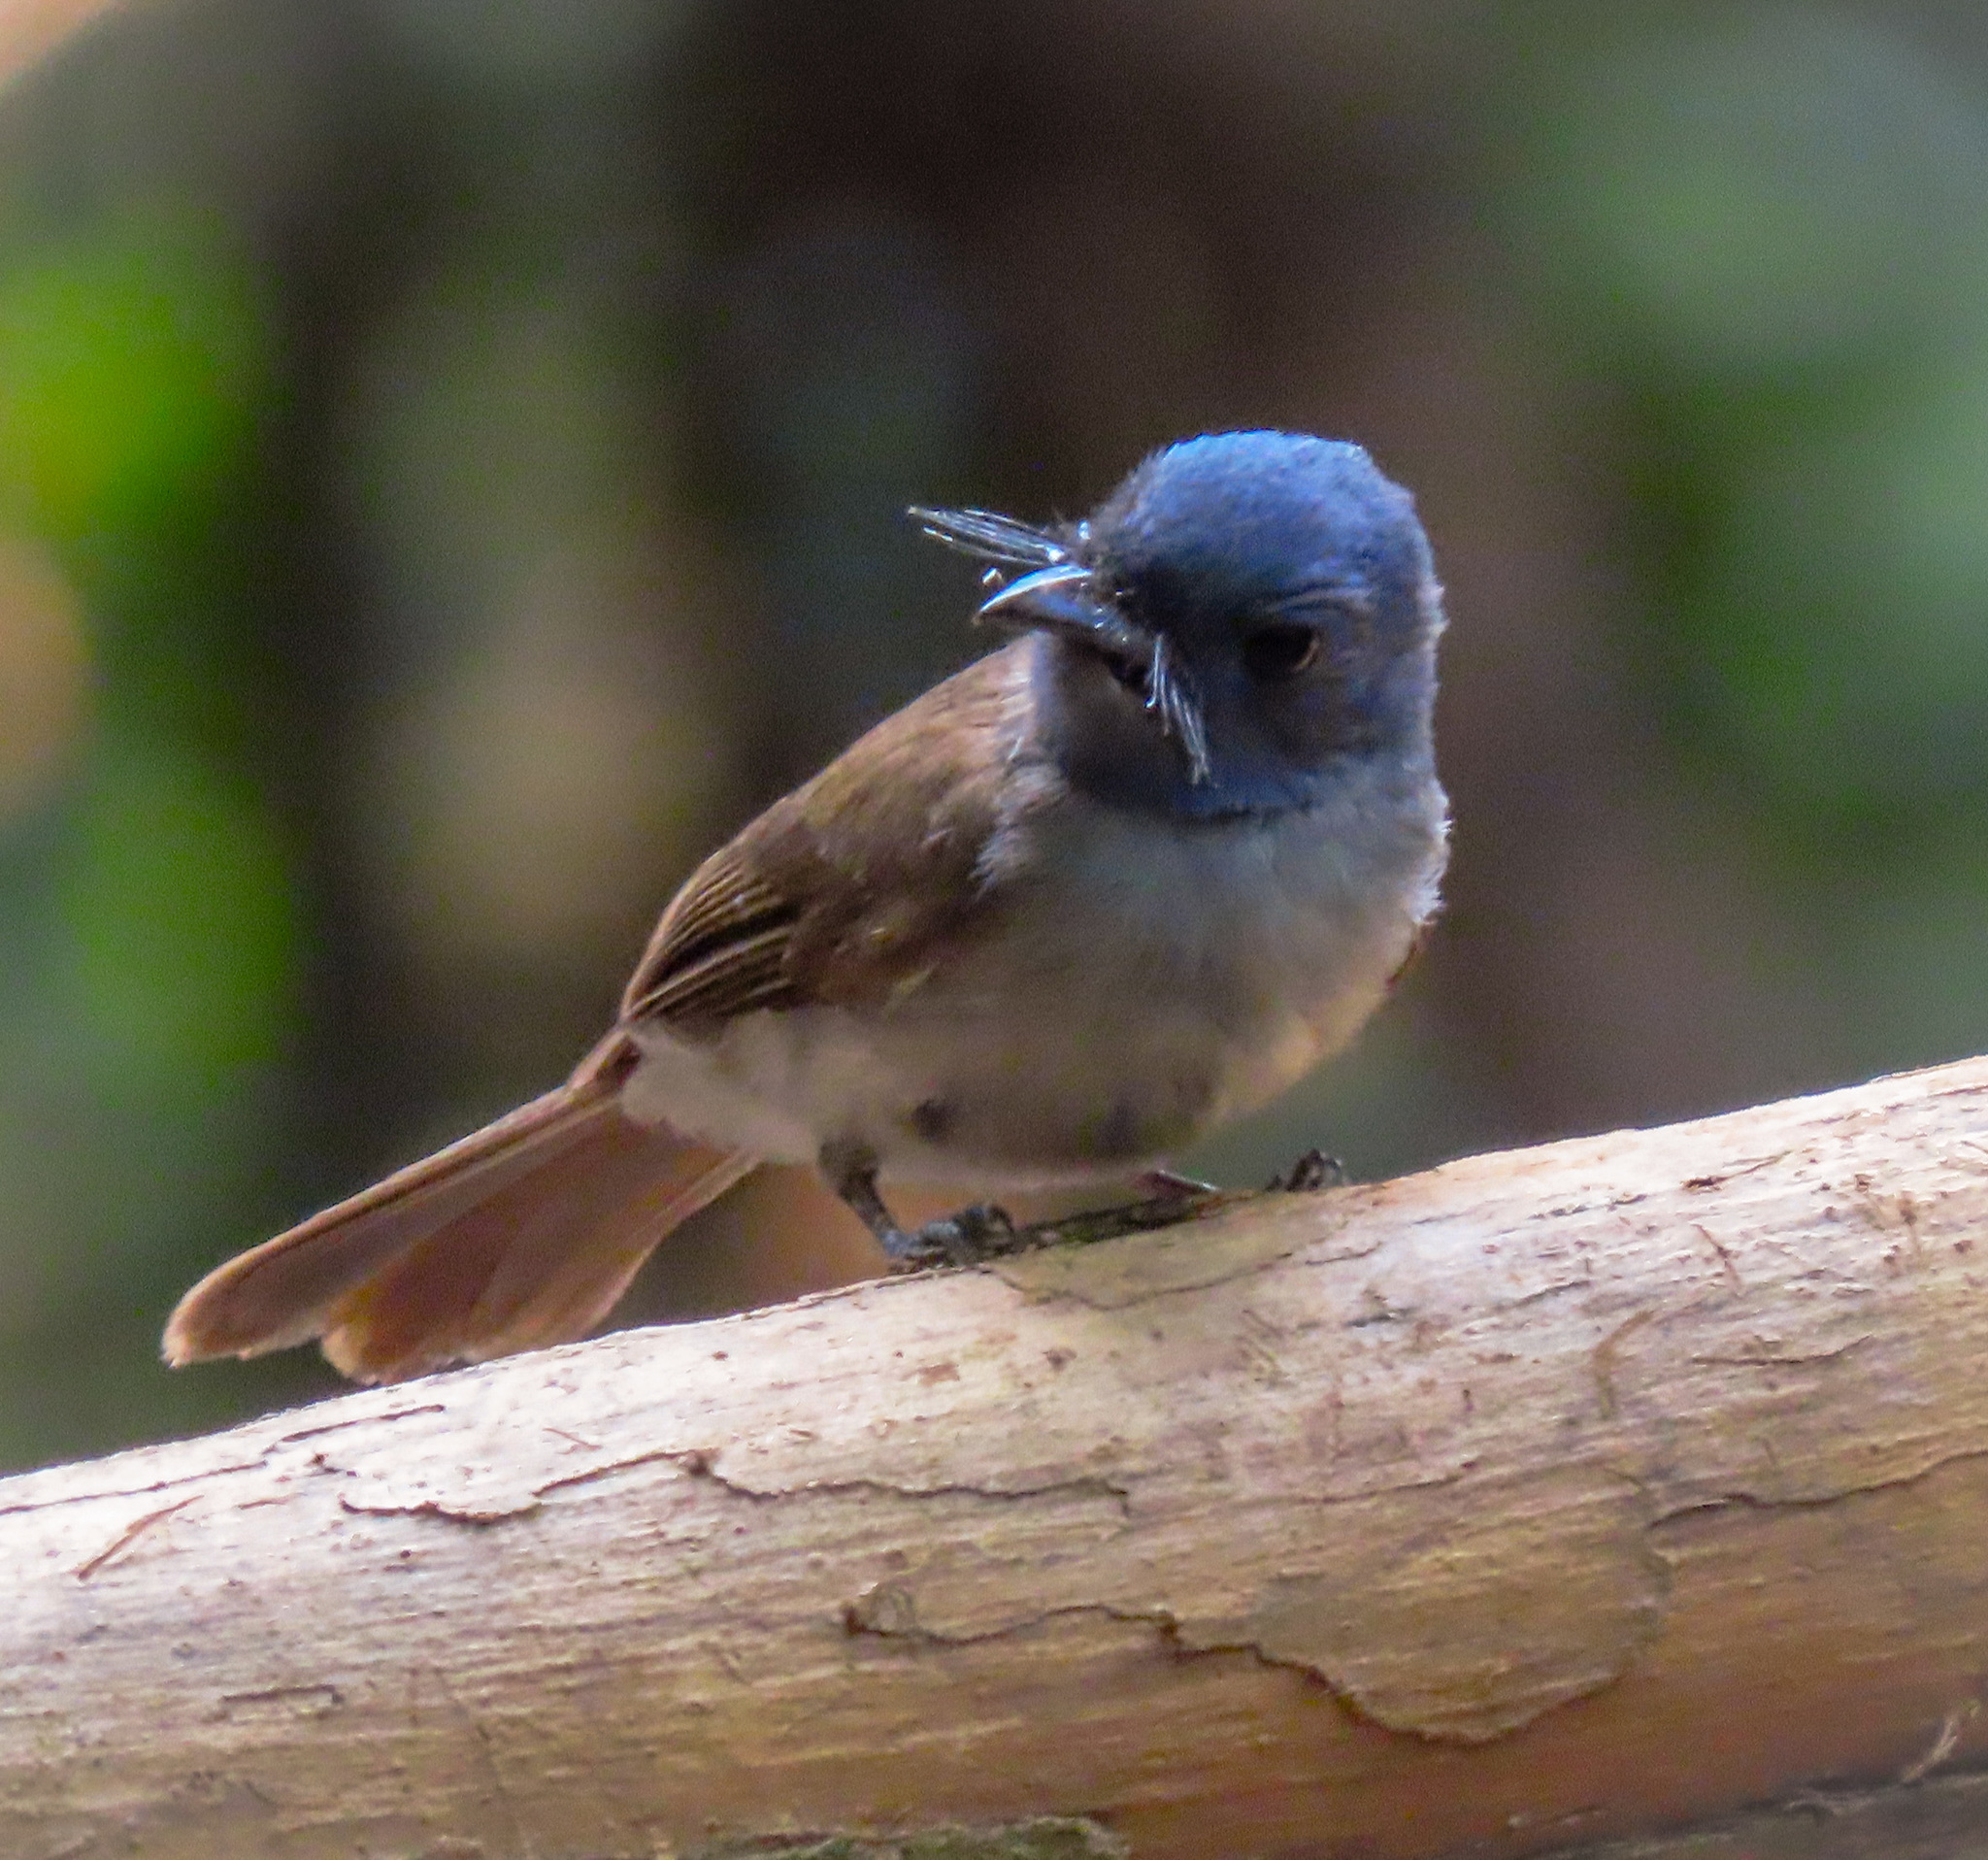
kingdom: Animalia
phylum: Chordata
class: Aves
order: Passeriformes
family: Monarchidae
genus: Hypothymis
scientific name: Hypothymis azurea
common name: Black-naped monarch
